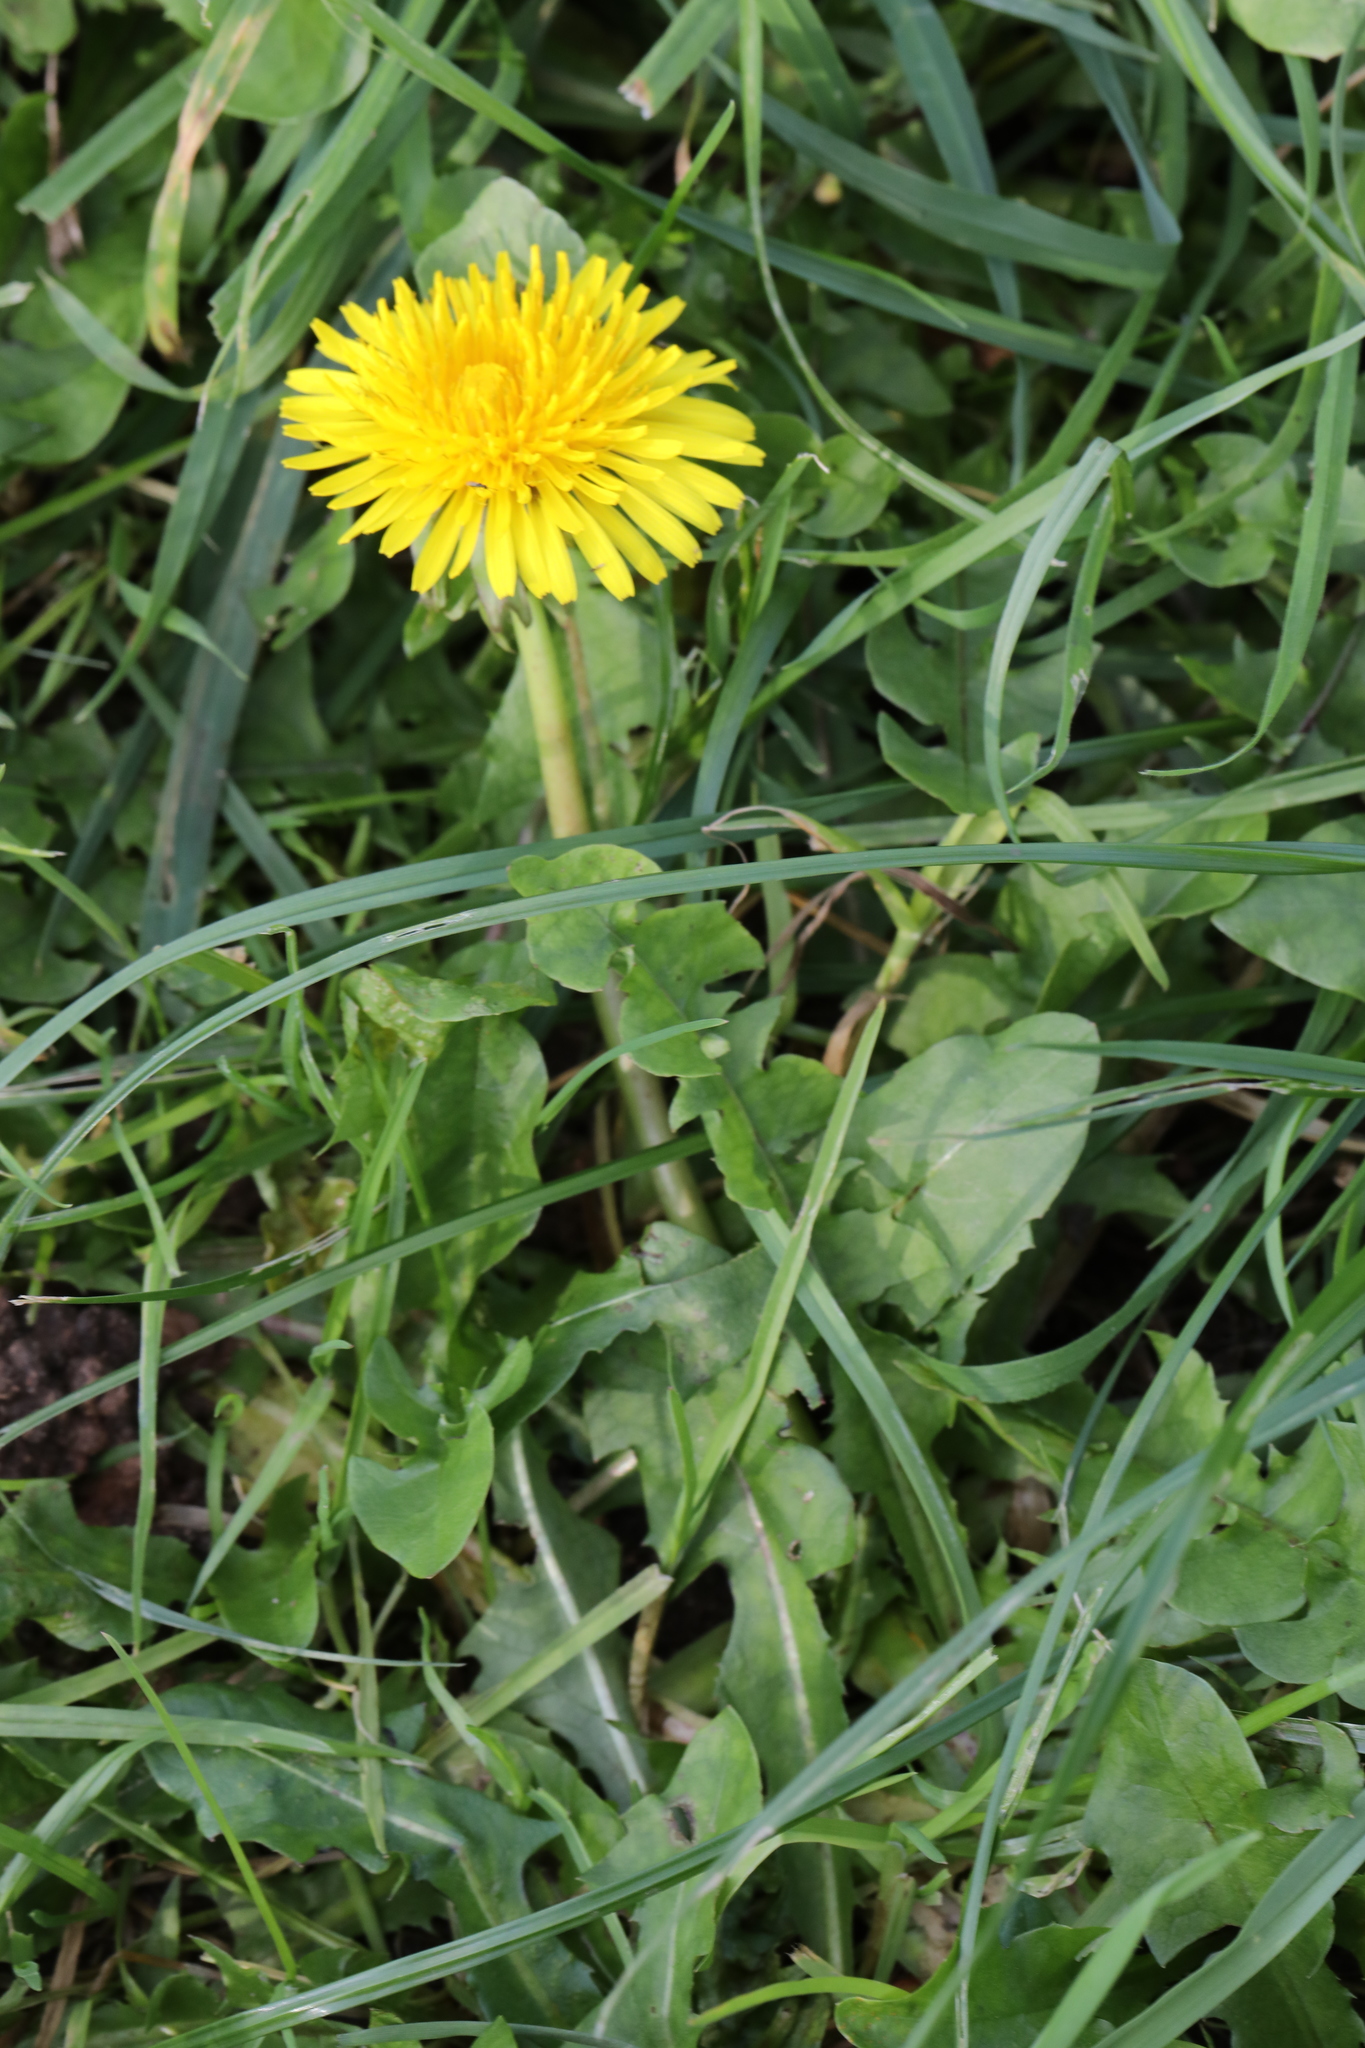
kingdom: Plantae
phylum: Tracheophyta
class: Magnoliopsida
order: Asterales
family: Asteraceae
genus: Taraxacum
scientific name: Taraxacum officinale
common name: Common dandelion
